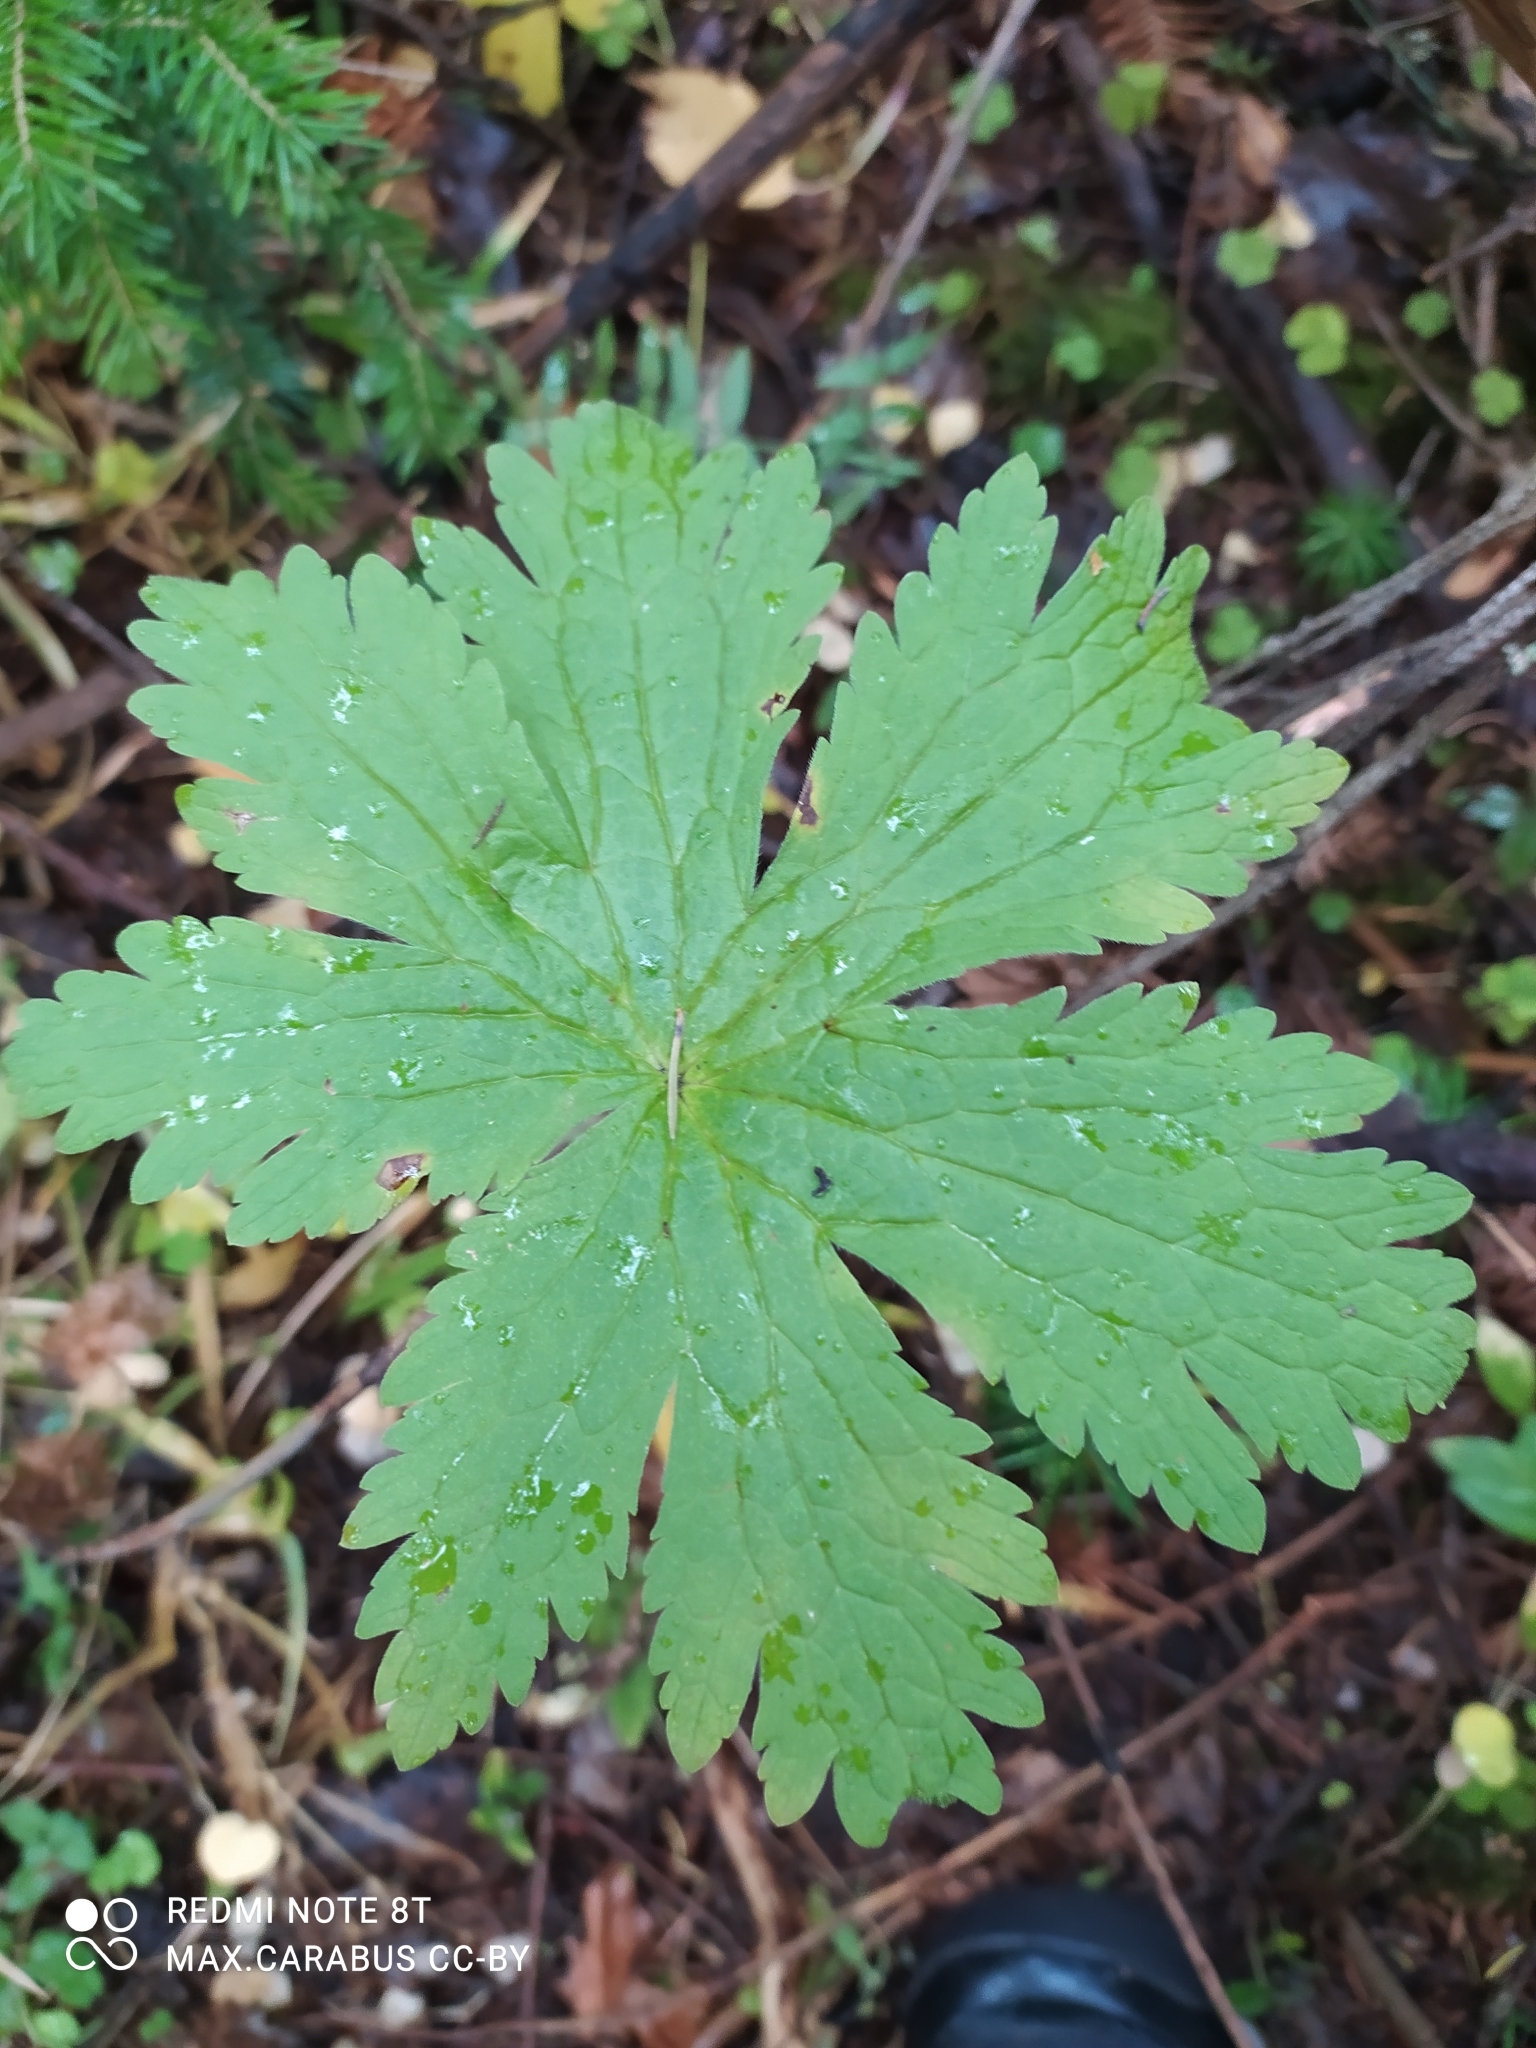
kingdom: Plantae
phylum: Tracheophyta
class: Magnoliopsida
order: Ranunculales
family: Ranunculaceae
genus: Trollius
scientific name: Trollius europaeus
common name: European globeflower
